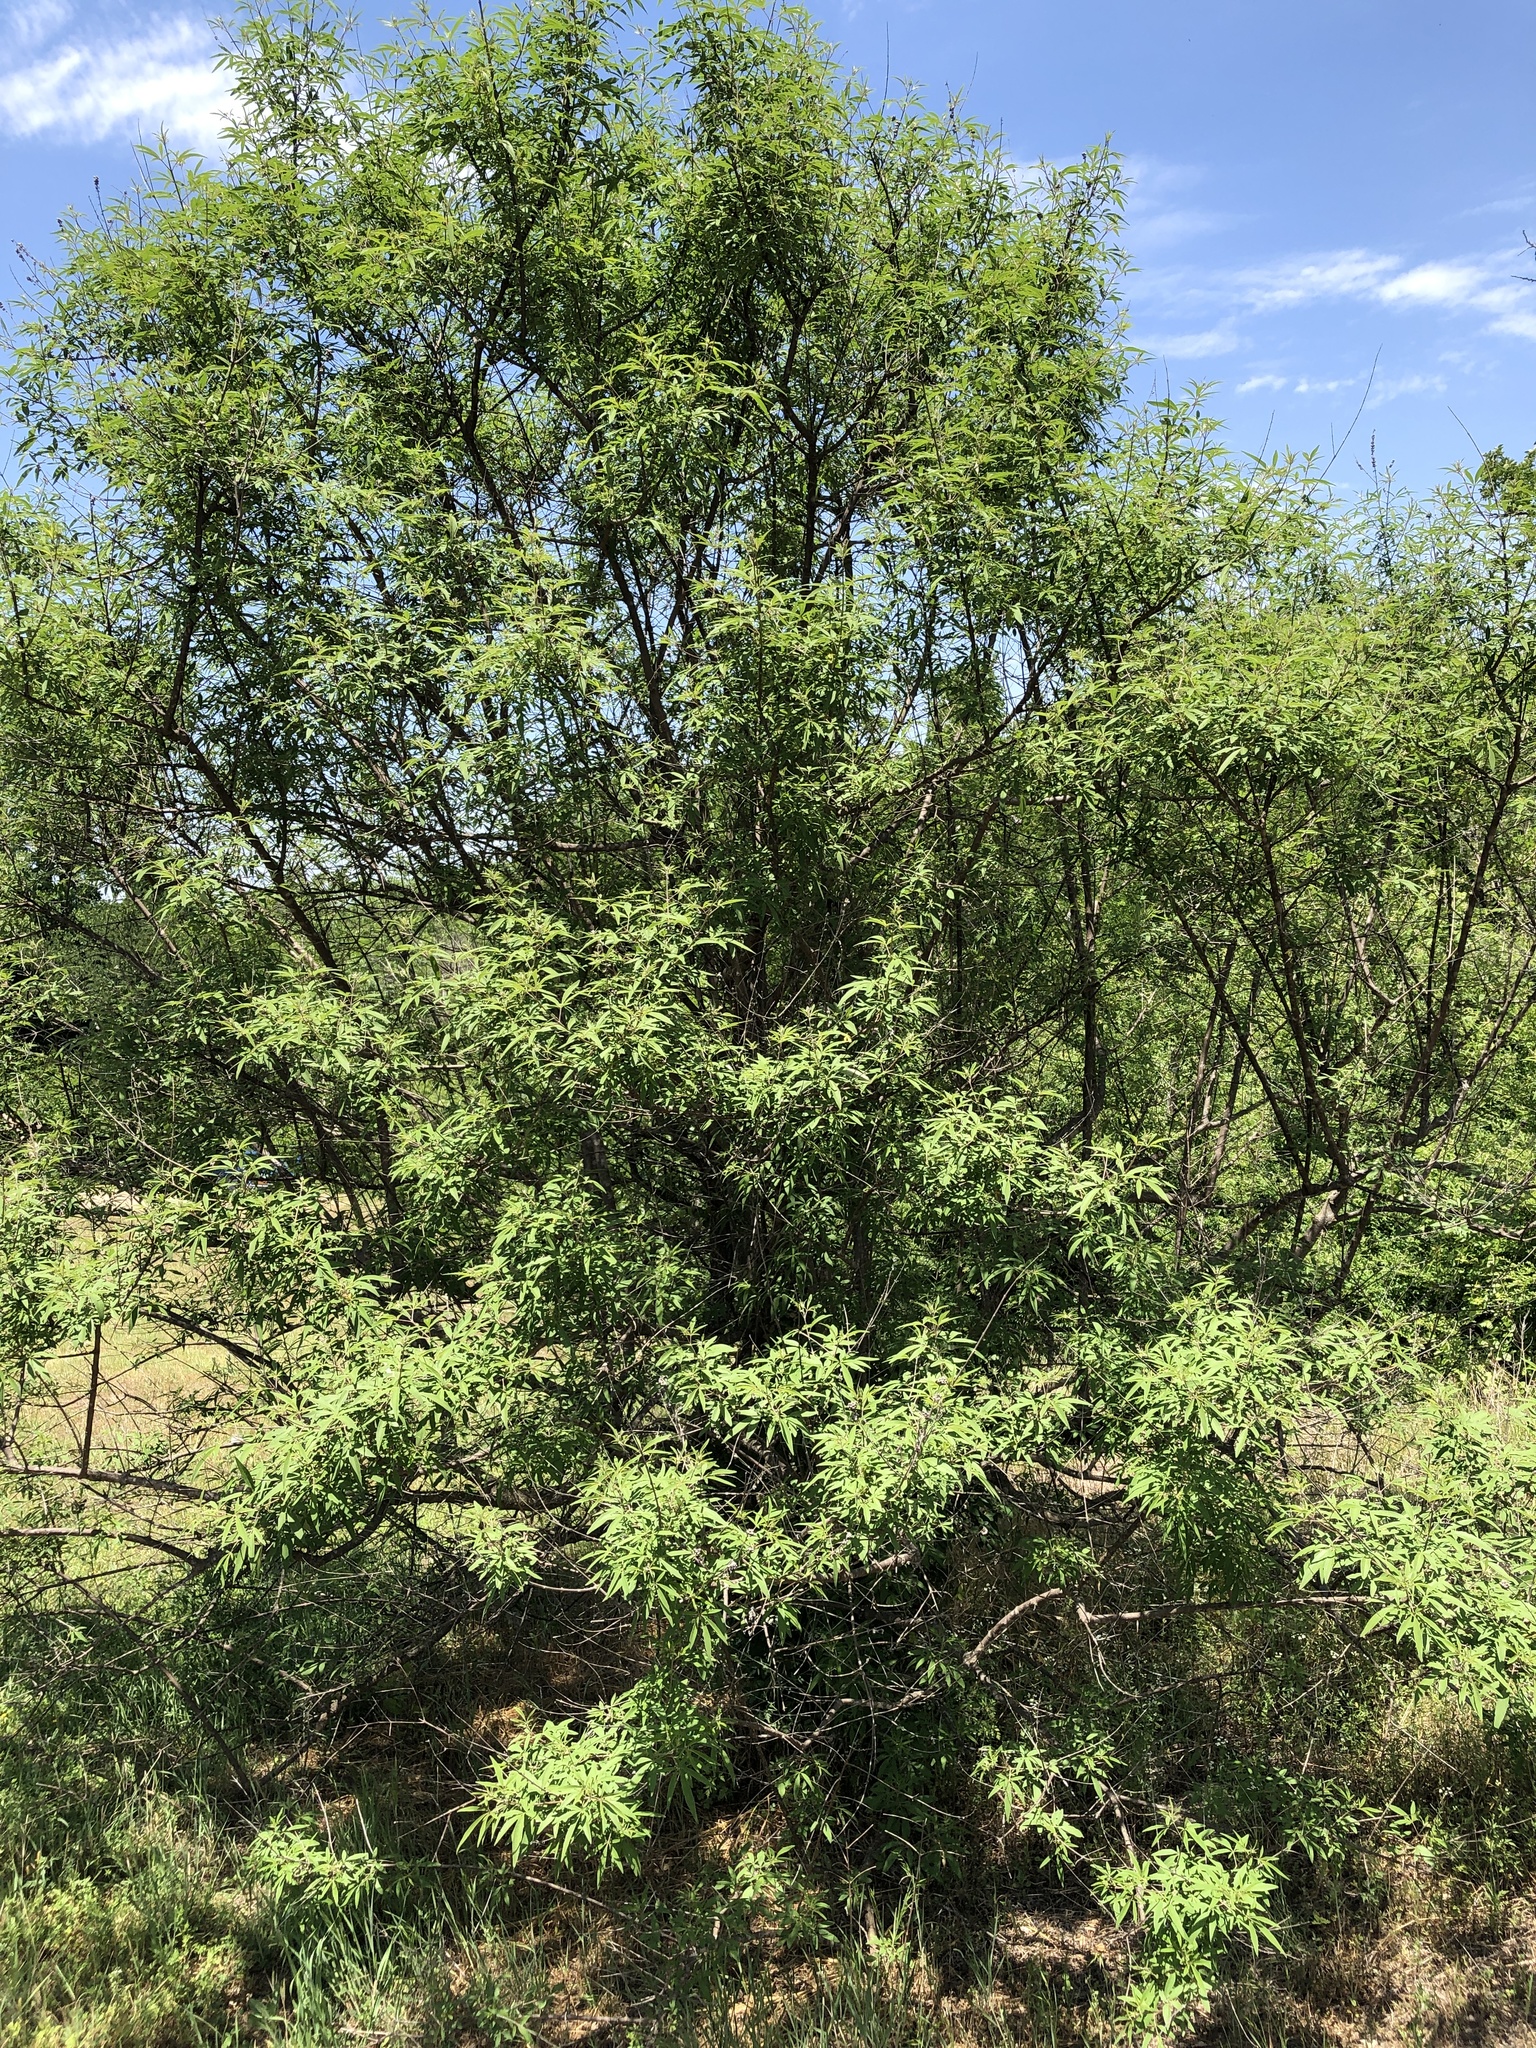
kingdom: Plantae
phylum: Tracheophyta
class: Magnoliopsida
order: Lamiales
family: Lamiaceae
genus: Vitex
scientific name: Vitex agnus-castus
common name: Chasteberry
